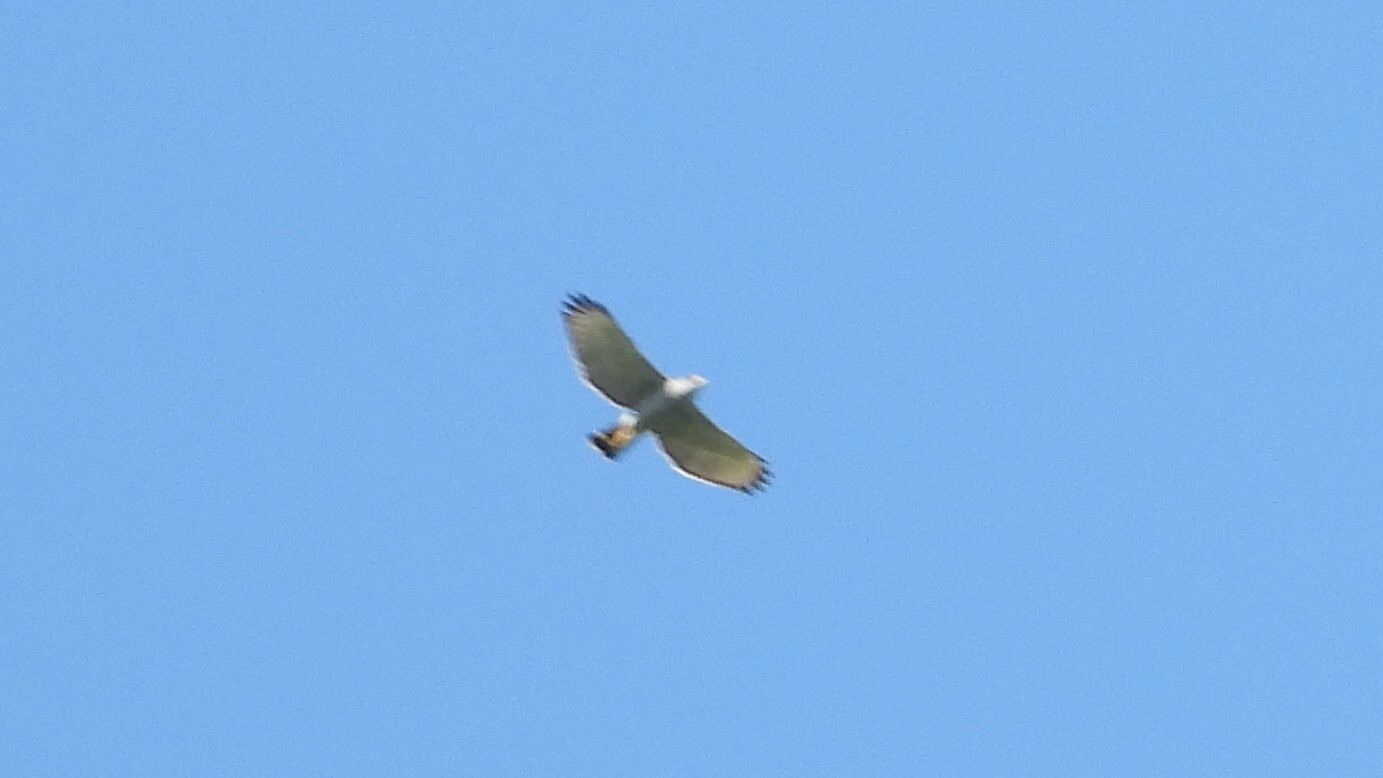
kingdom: Animalia
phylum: Chordata
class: Aves
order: Accipitriformes
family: Accipitridae
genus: Buteo
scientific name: Buteo nitidus
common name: Grey-lined hawk
